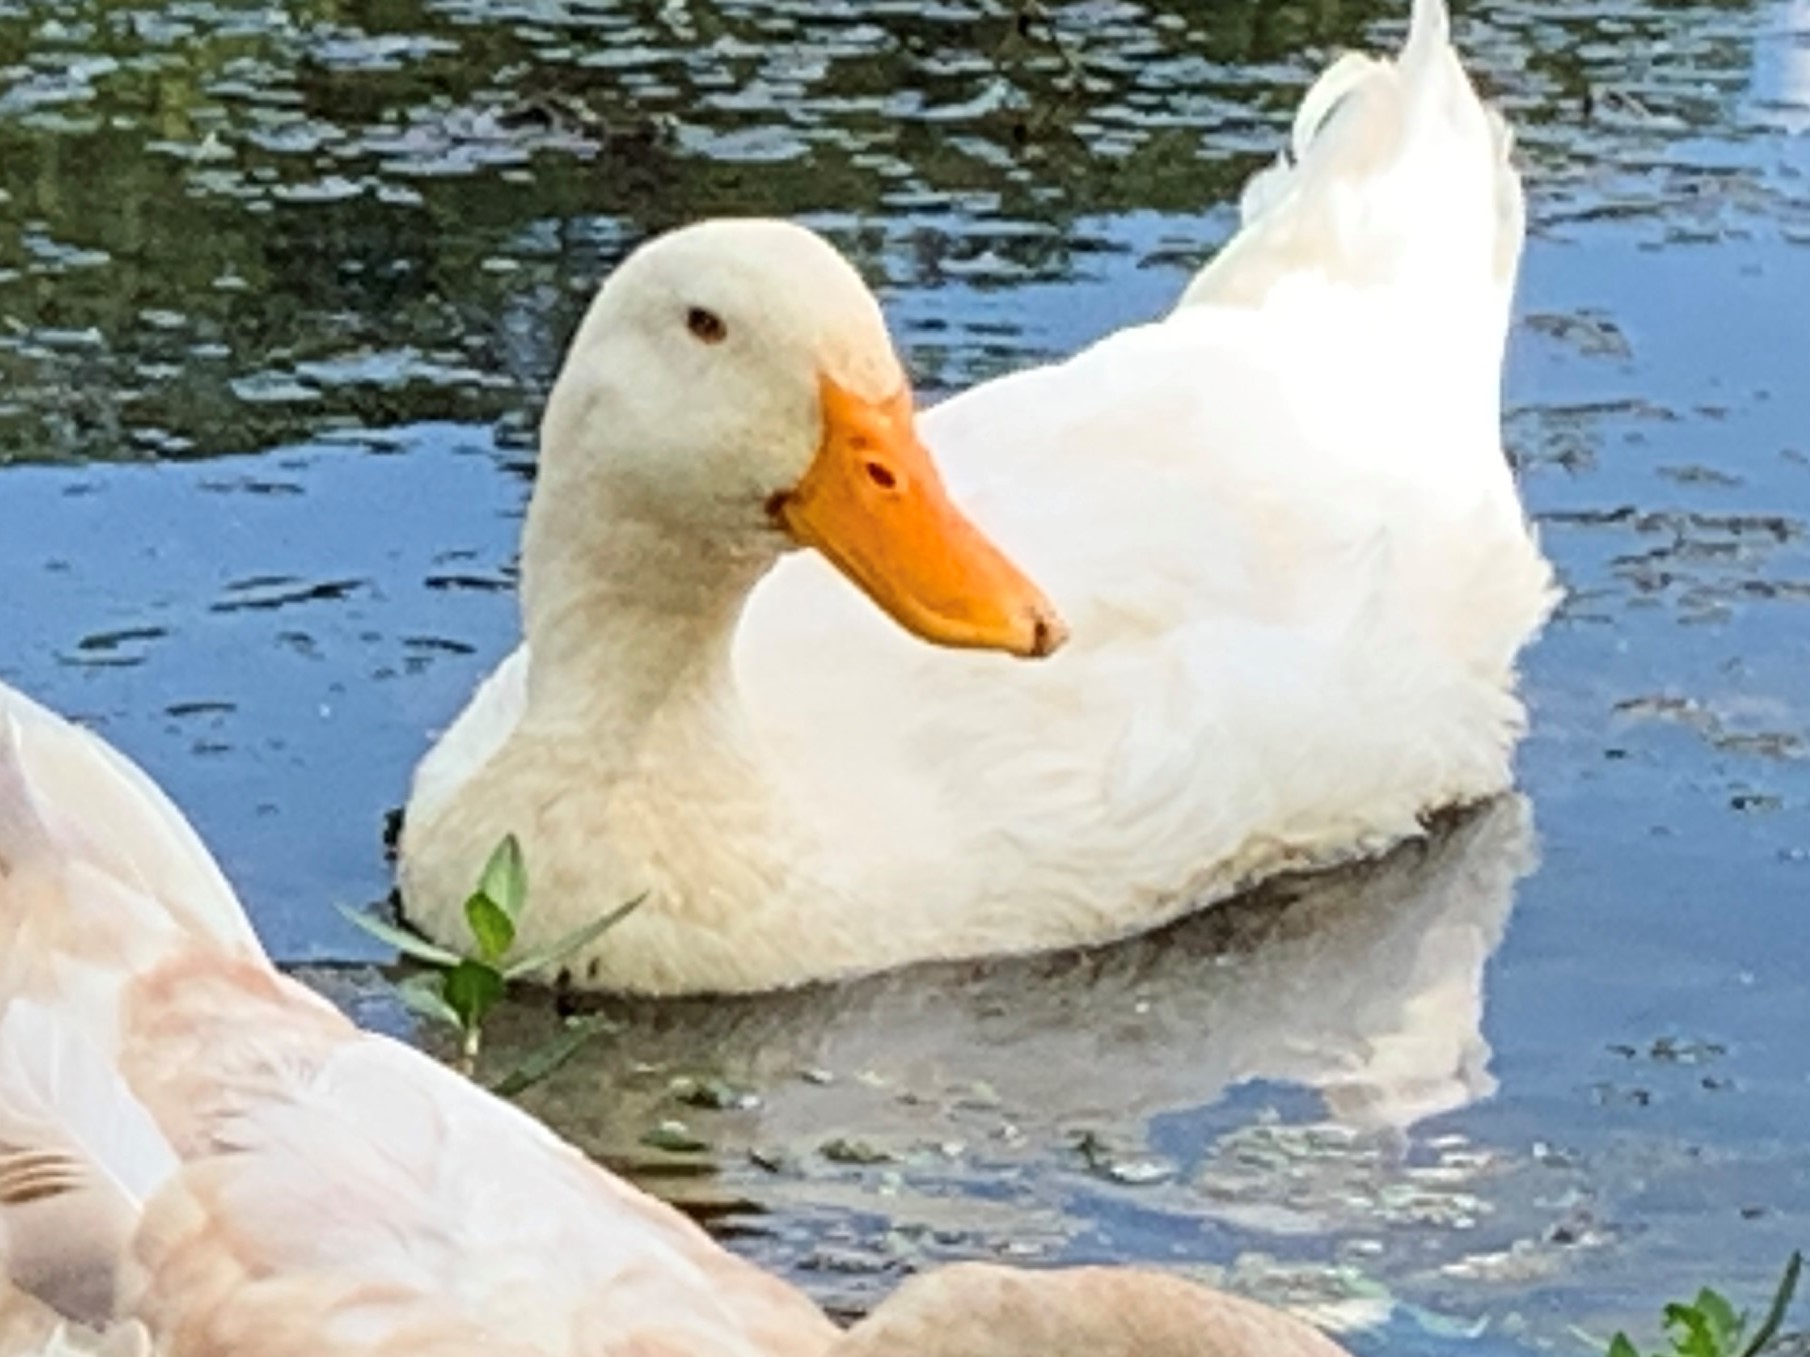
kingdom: Animalia
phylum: Chordata
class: Aves
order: Anseriformes
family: Anatidae
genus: Anas
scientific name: Anas platyrhynchos
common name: Mallard
